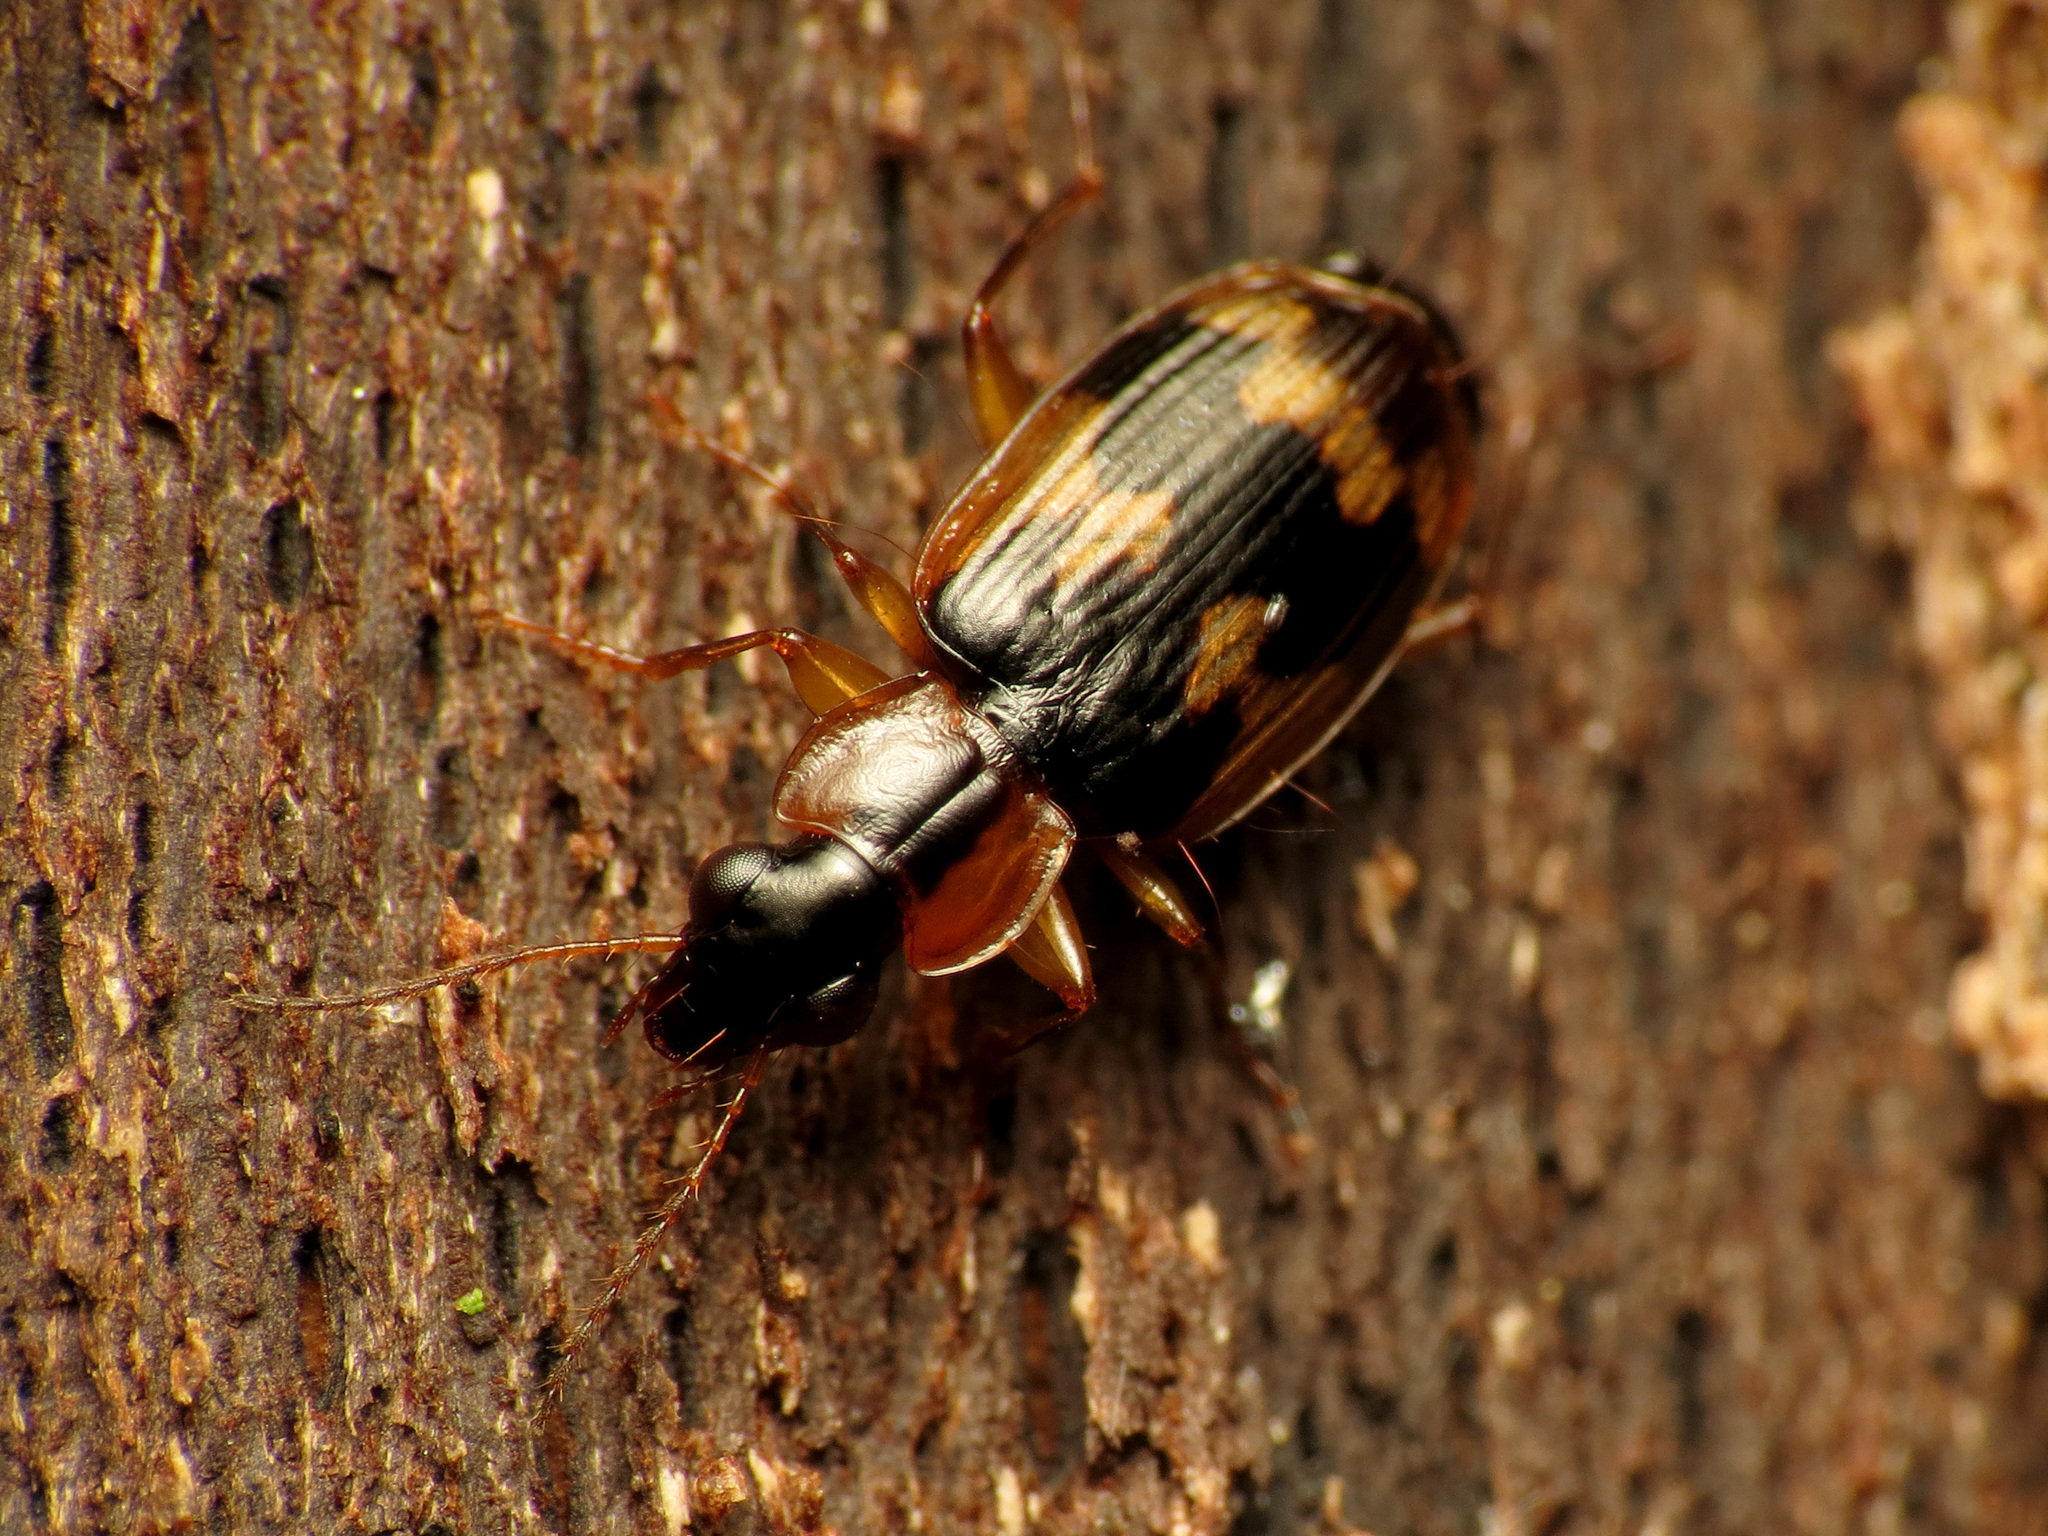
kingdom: Animalia
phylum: Arthropoda
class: Insecta
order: Coleoptera
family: Carabidae
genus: Phloeoxena
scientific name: Phloeoxena signata
